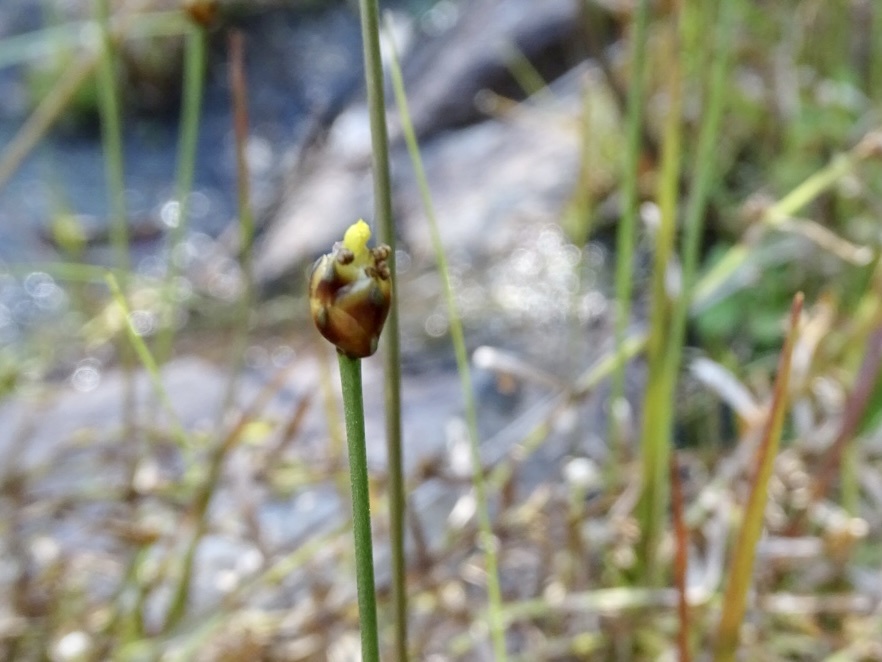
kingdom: Plantae
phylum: Tracheophyta
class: Liliopsida
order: Poales
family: Xyridaceae
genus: Xyris
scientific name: Xyris pauciflora
